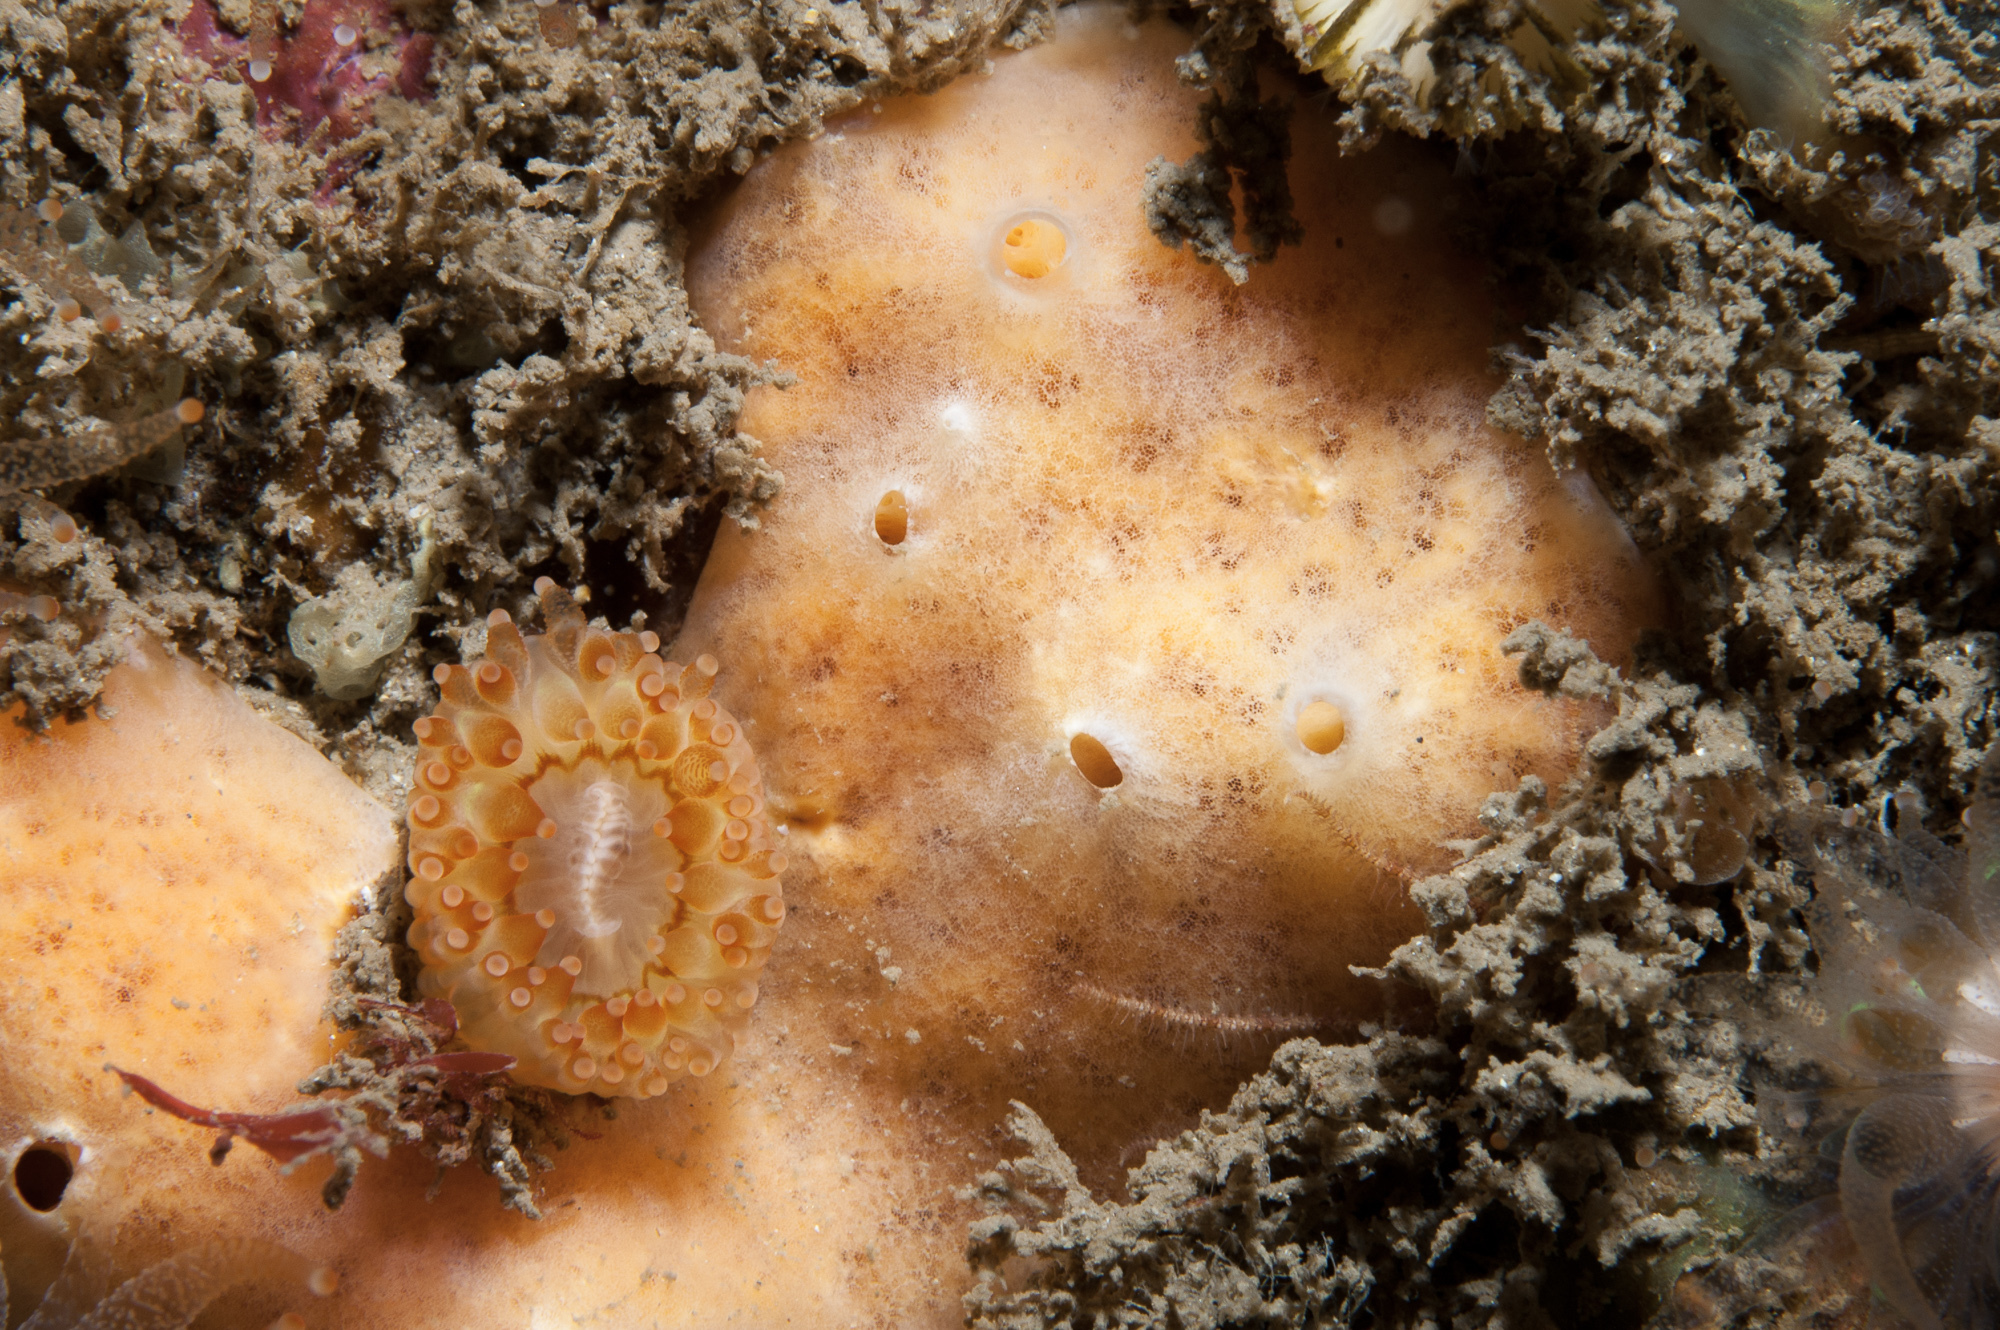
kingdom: Animalia
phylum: Porifera
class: Demospongiae
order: Poecilosclerida
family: Myxillidae
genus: Myxilla
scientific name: Myxilla fimbriata
